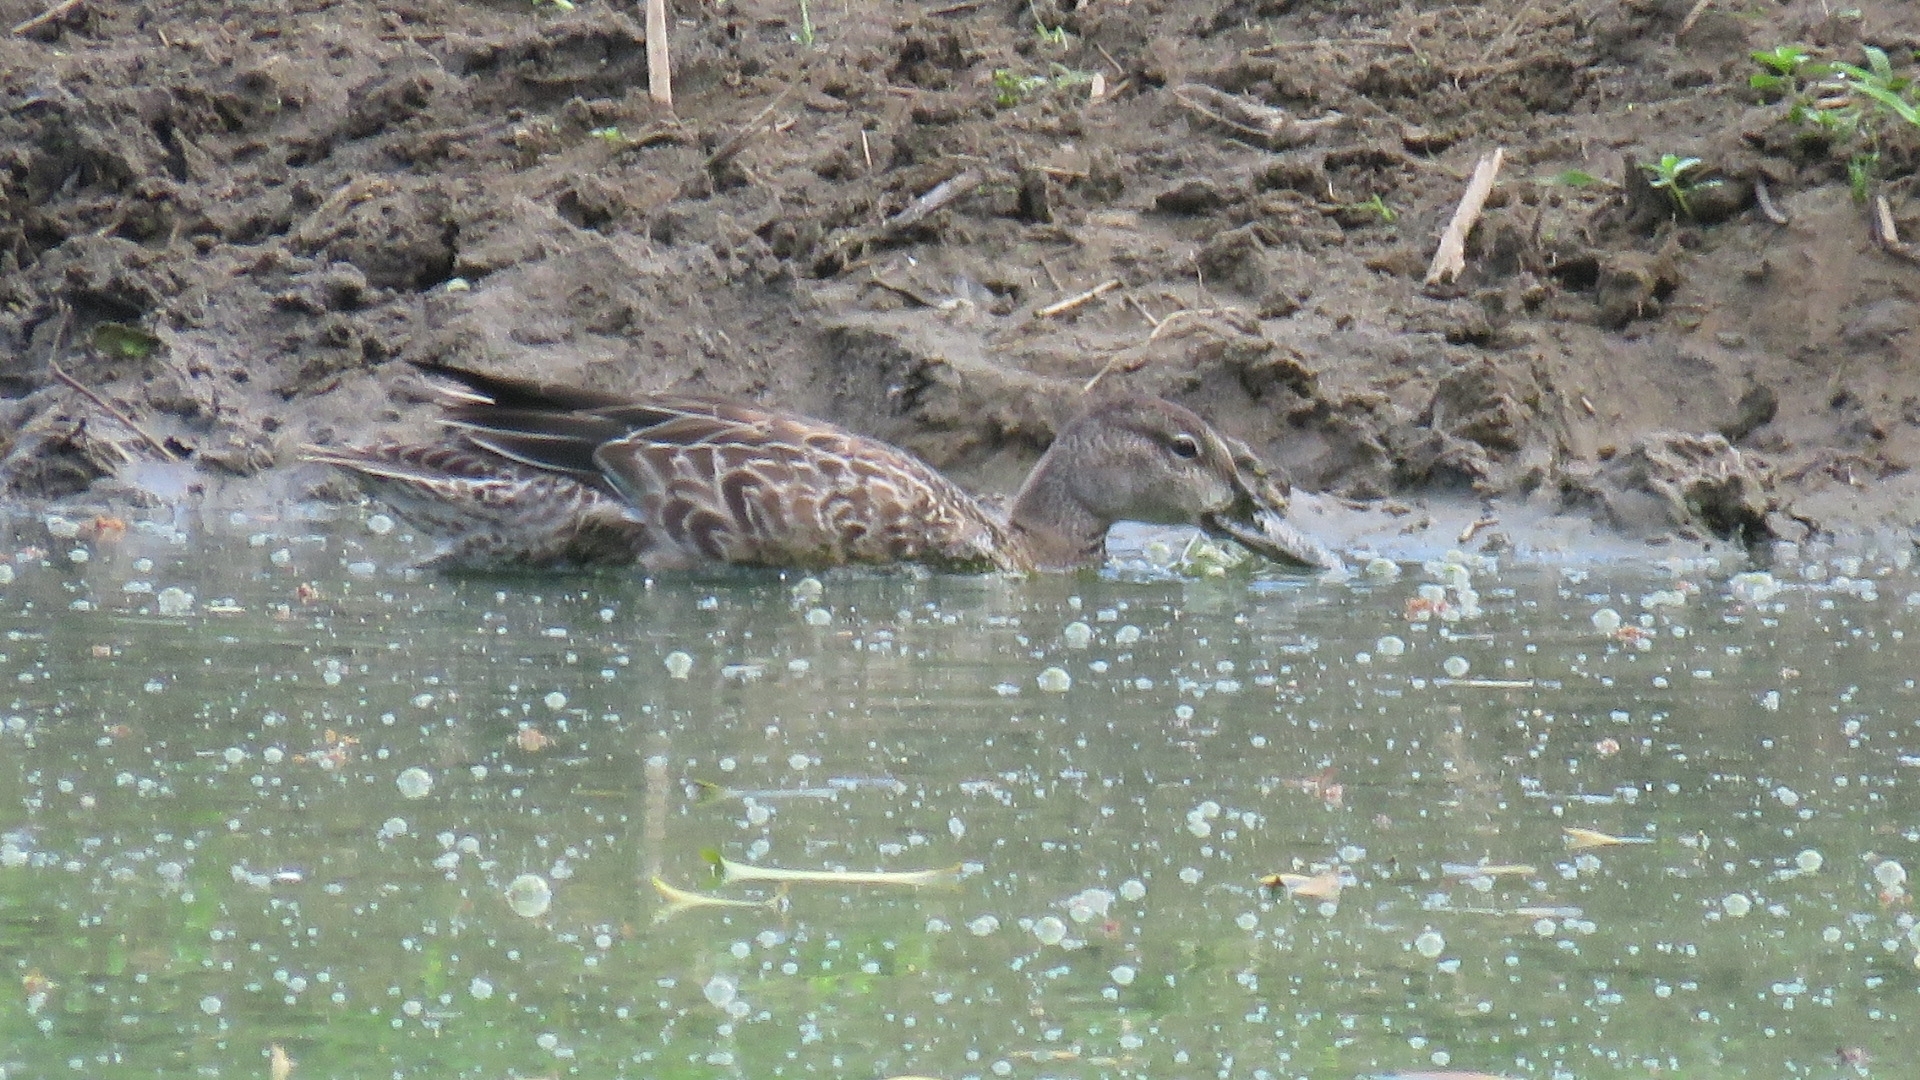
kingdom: Animalia
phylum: Chordata
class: Aves
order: Anseriformes
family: Anatidae
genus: Spatula
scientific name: Spatula discors
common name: Blue-winged teal
